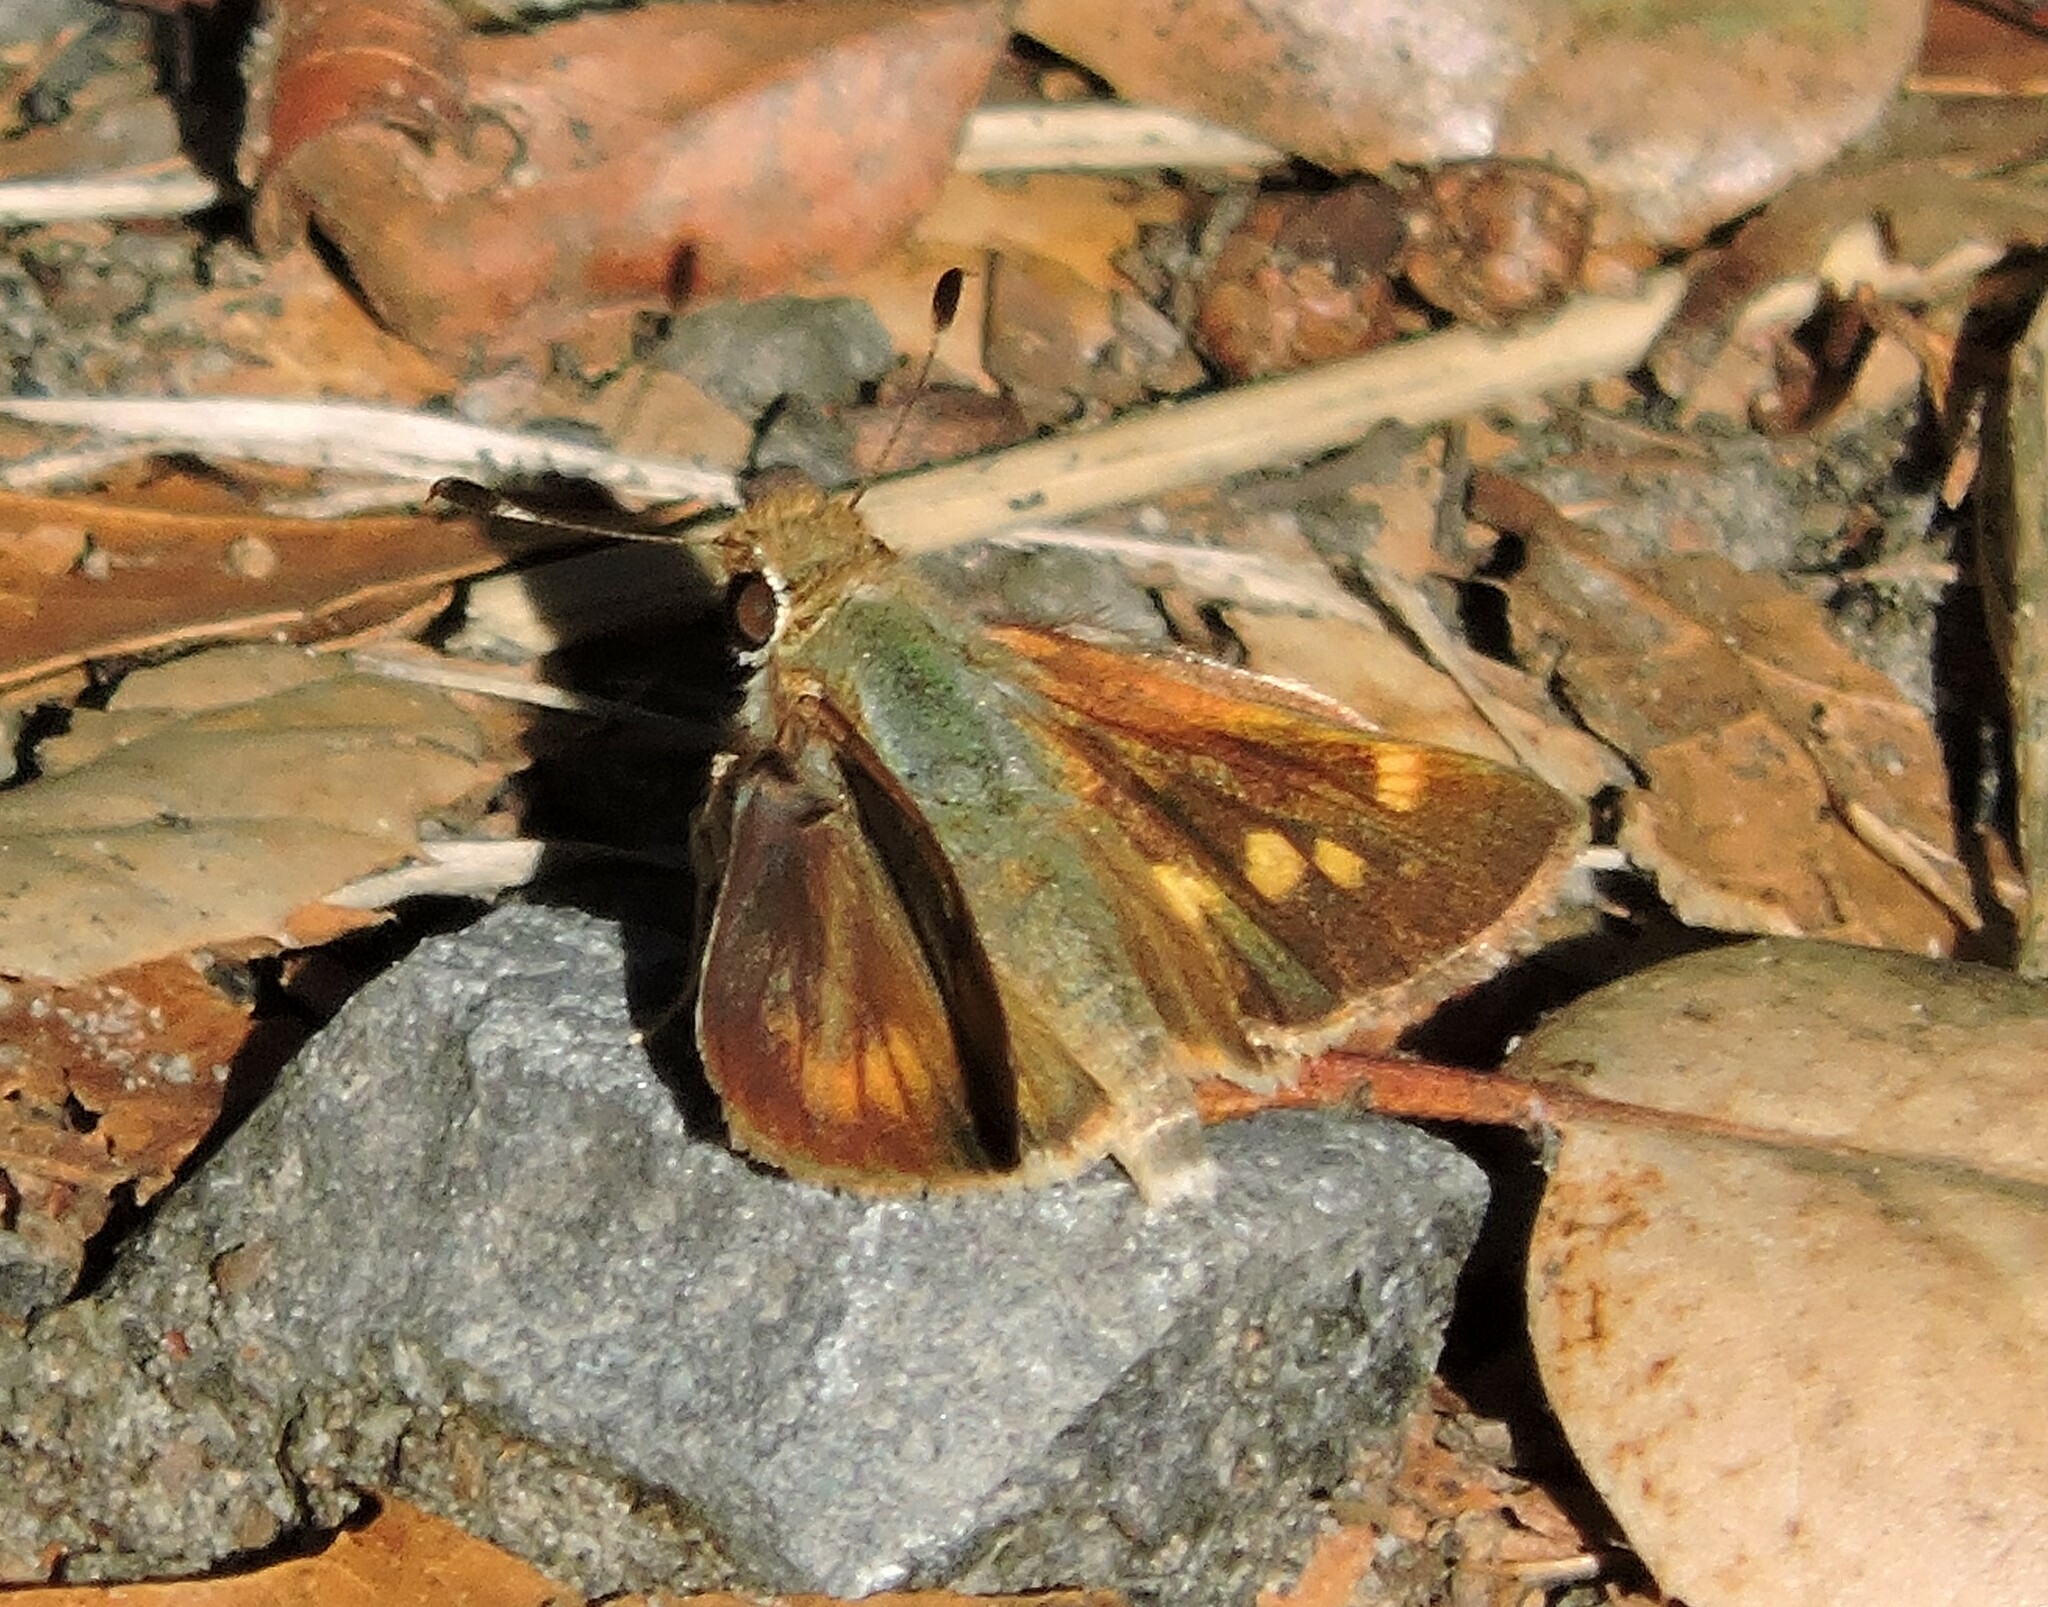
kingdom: Animalia
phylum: Arthropoda
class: Insecta
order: Lepidoptera
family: Hesperiidae
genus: Lon
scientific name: Lon melane
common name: Umber skipper
